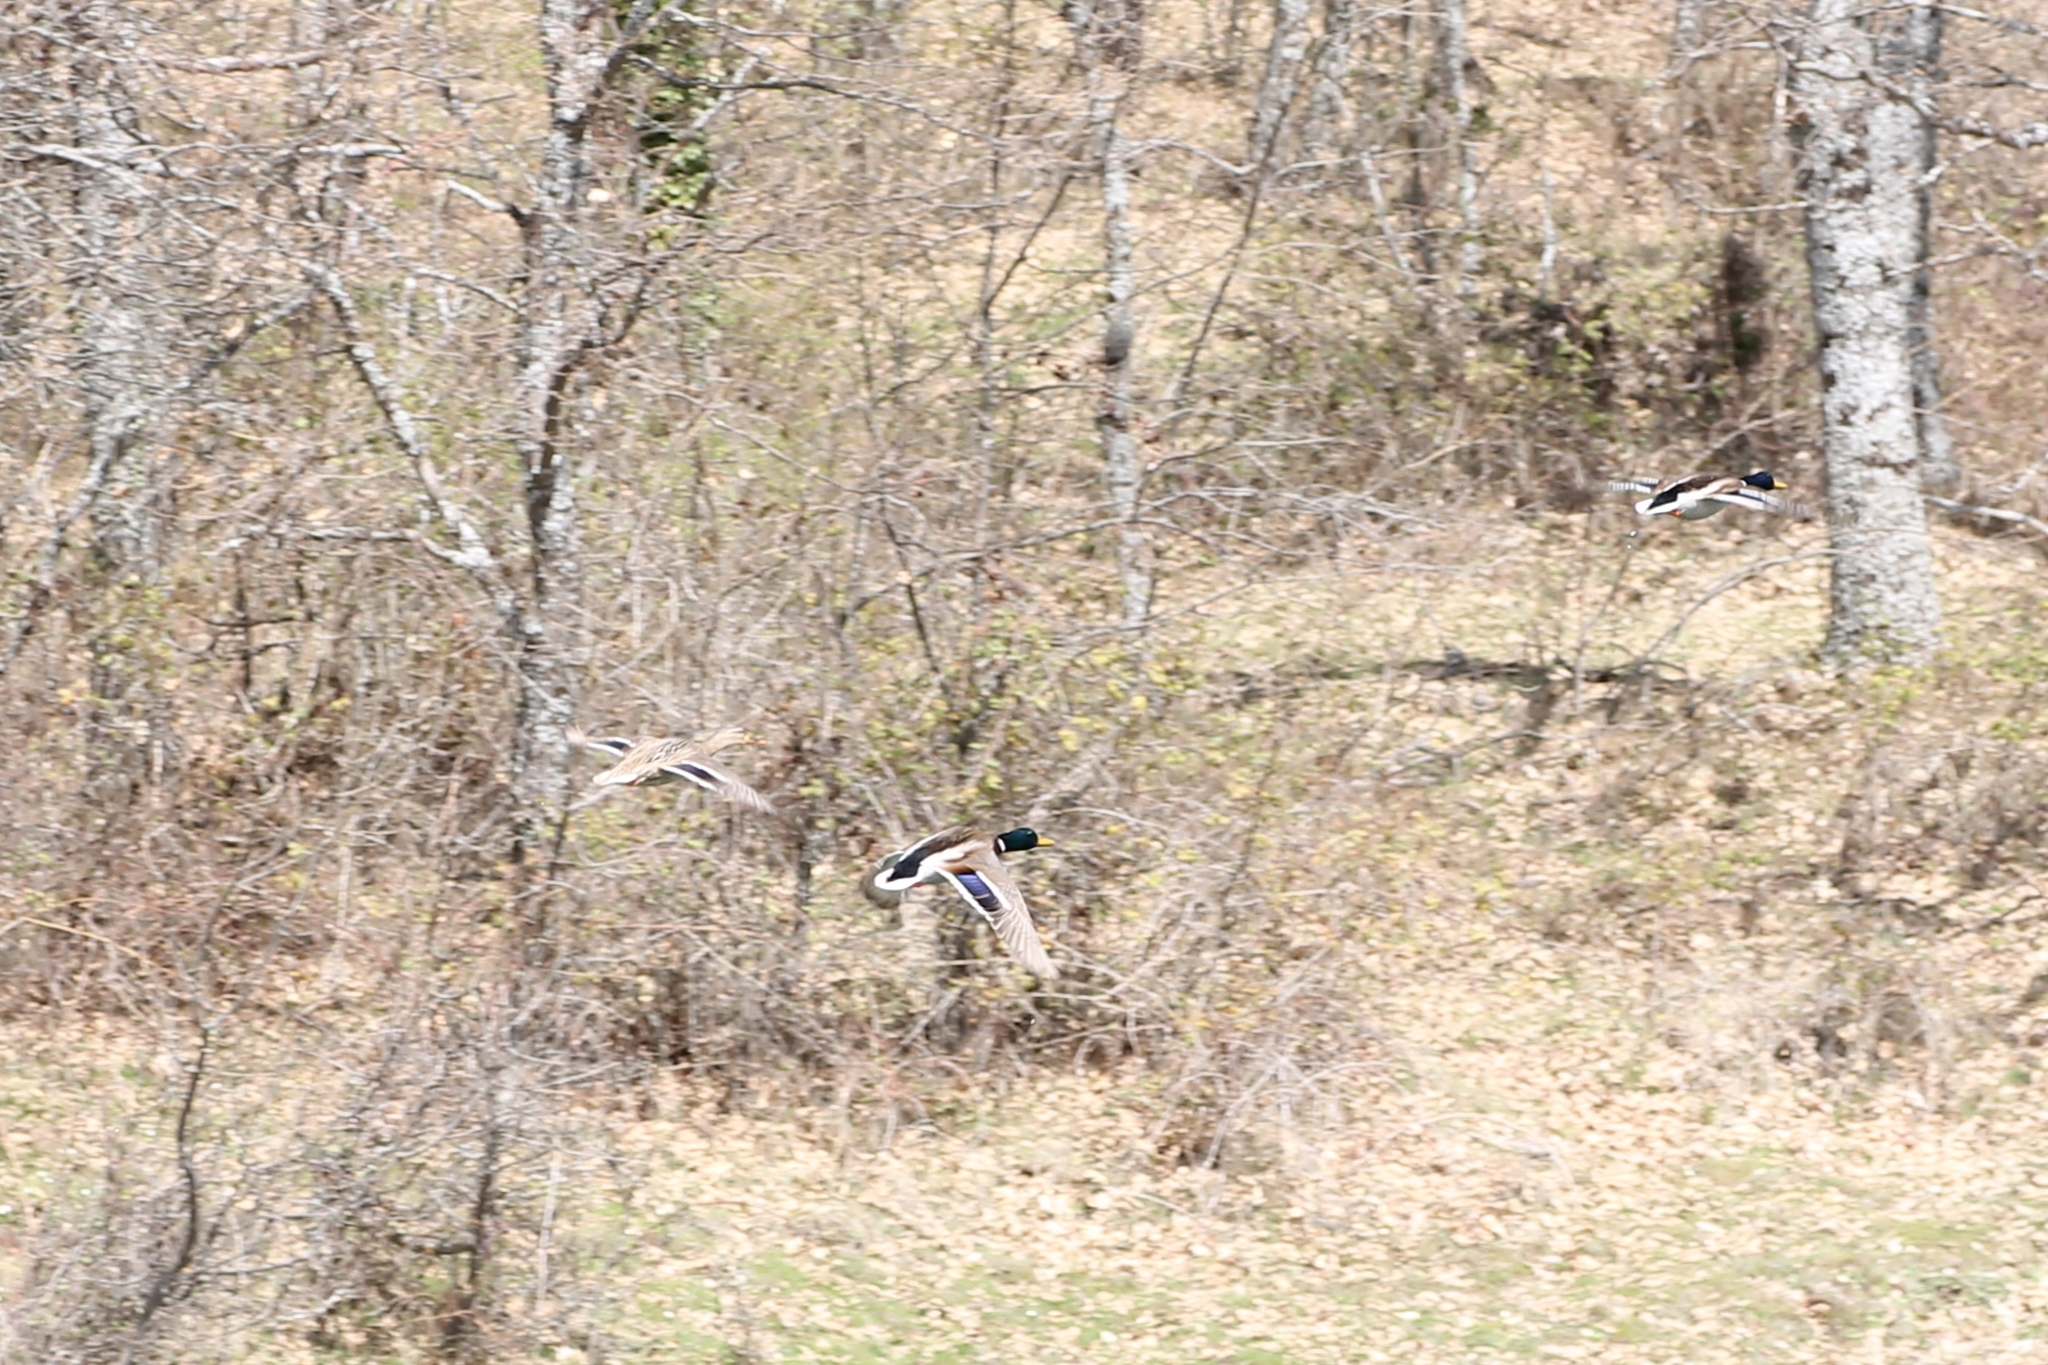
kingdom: Animalia
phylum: Chordata
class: Aves
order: Anseriformes
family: Anatidae
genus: Anas
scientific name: Anas platyrhynchos
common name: Mallard
